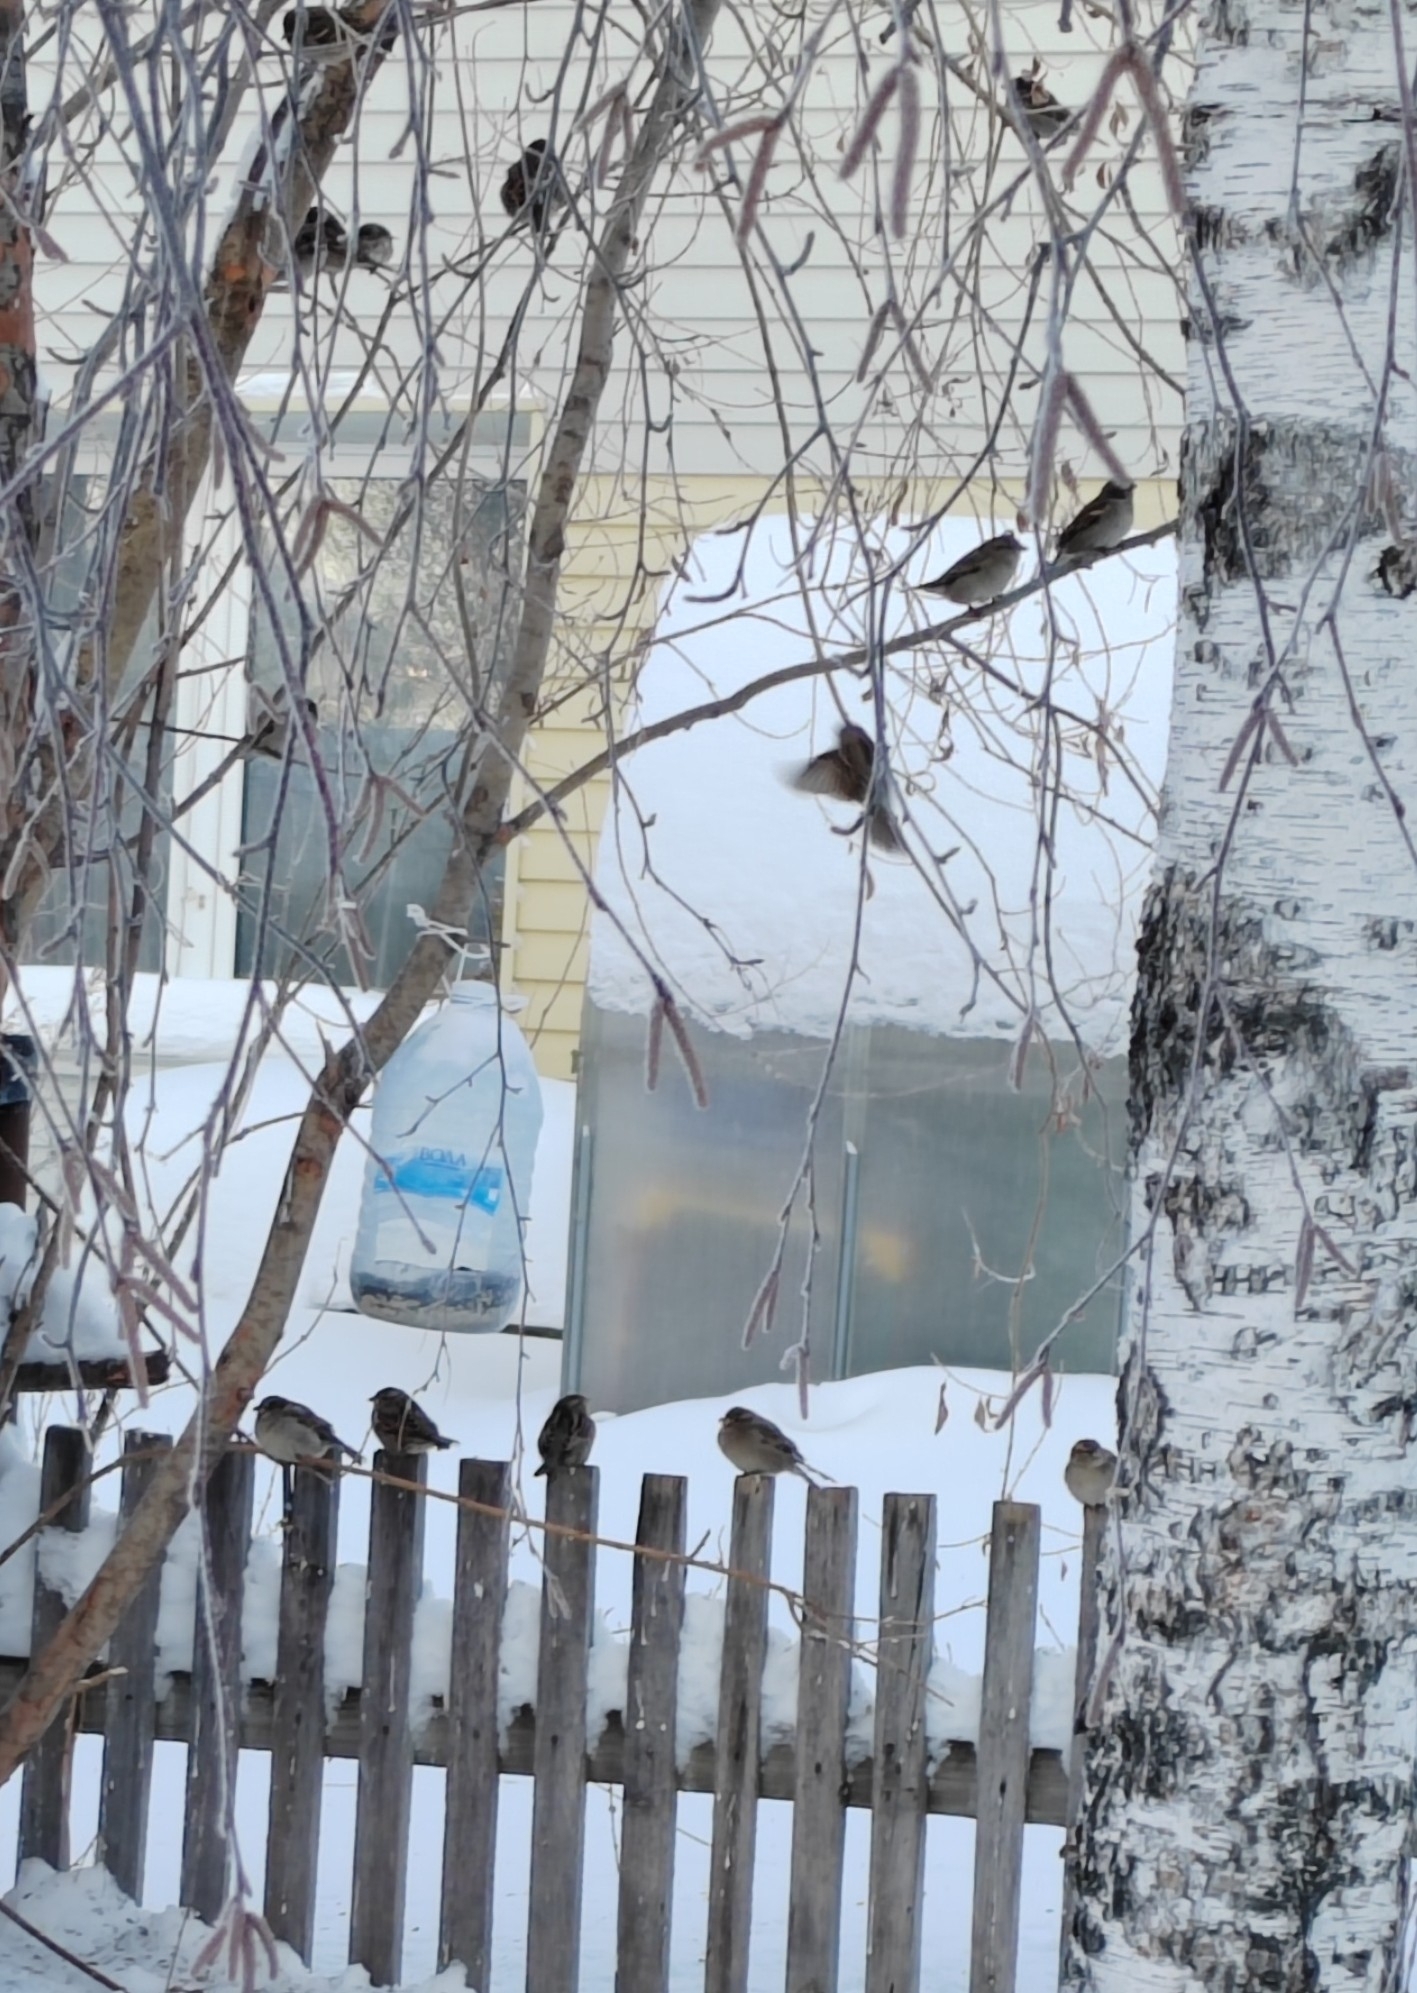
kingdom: Animalia
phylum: Chordata
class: Aves
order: Passeriformes
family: Passeridae
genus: Passer
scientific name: Passer domesticus
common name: House sparrow
